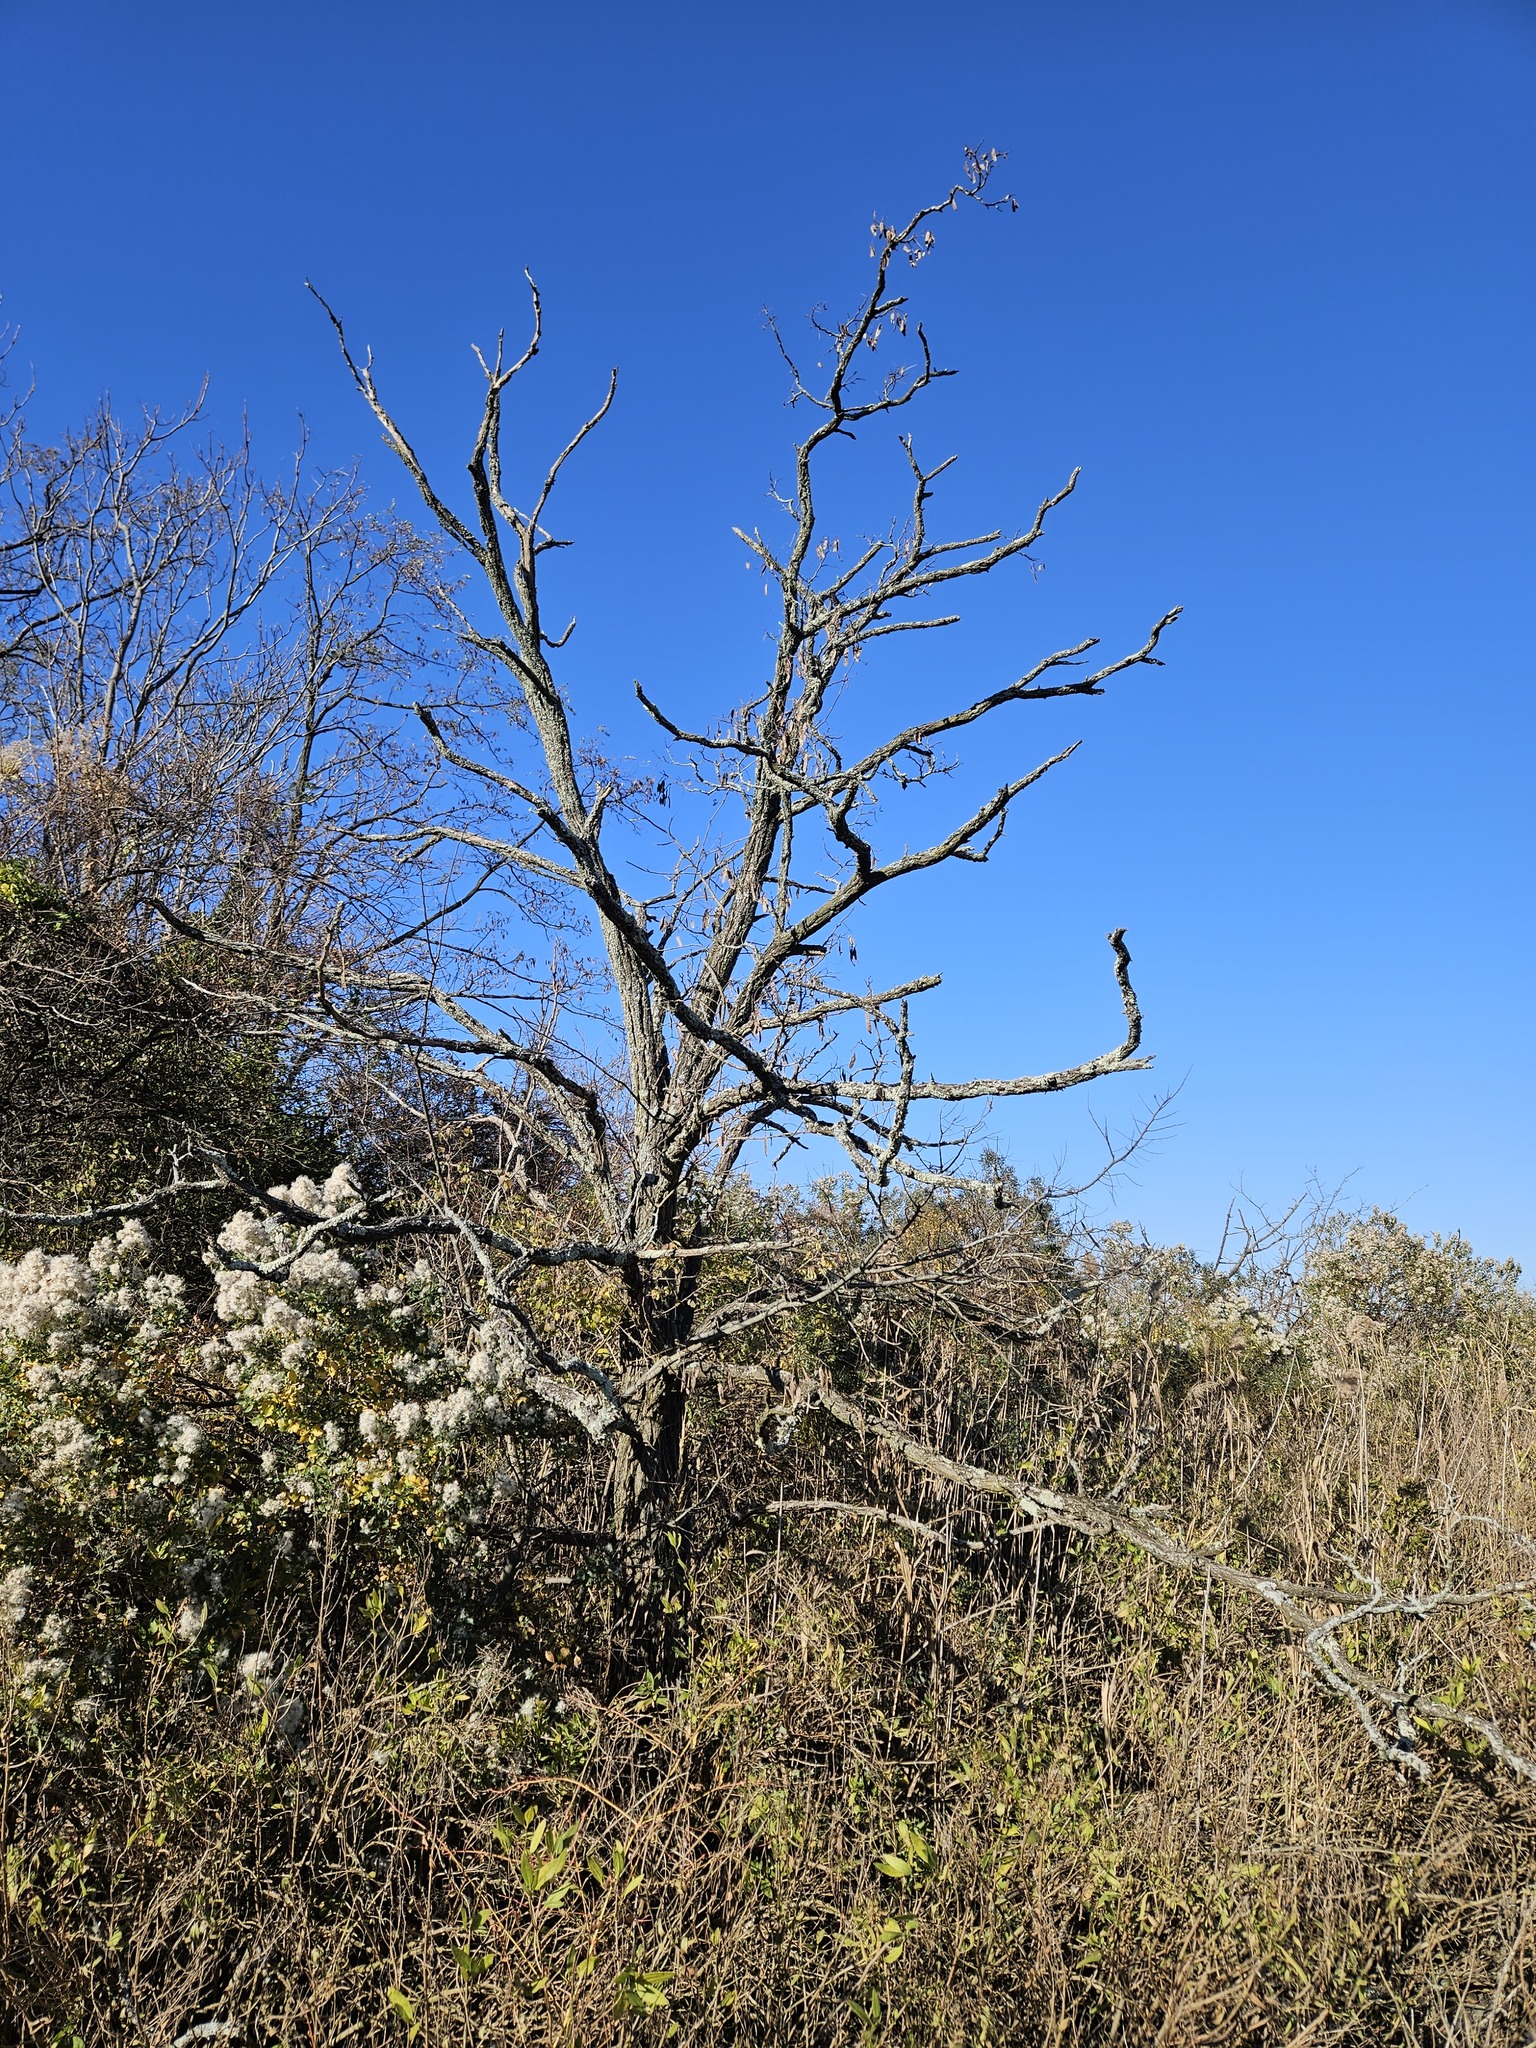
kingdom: Plantae
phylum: Tracheophyta
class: Magnoliopsida
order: Fabales
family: Fabaceae
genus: Gleditsia
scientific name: Gleditsia triacanthos
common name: Common honeylocust
